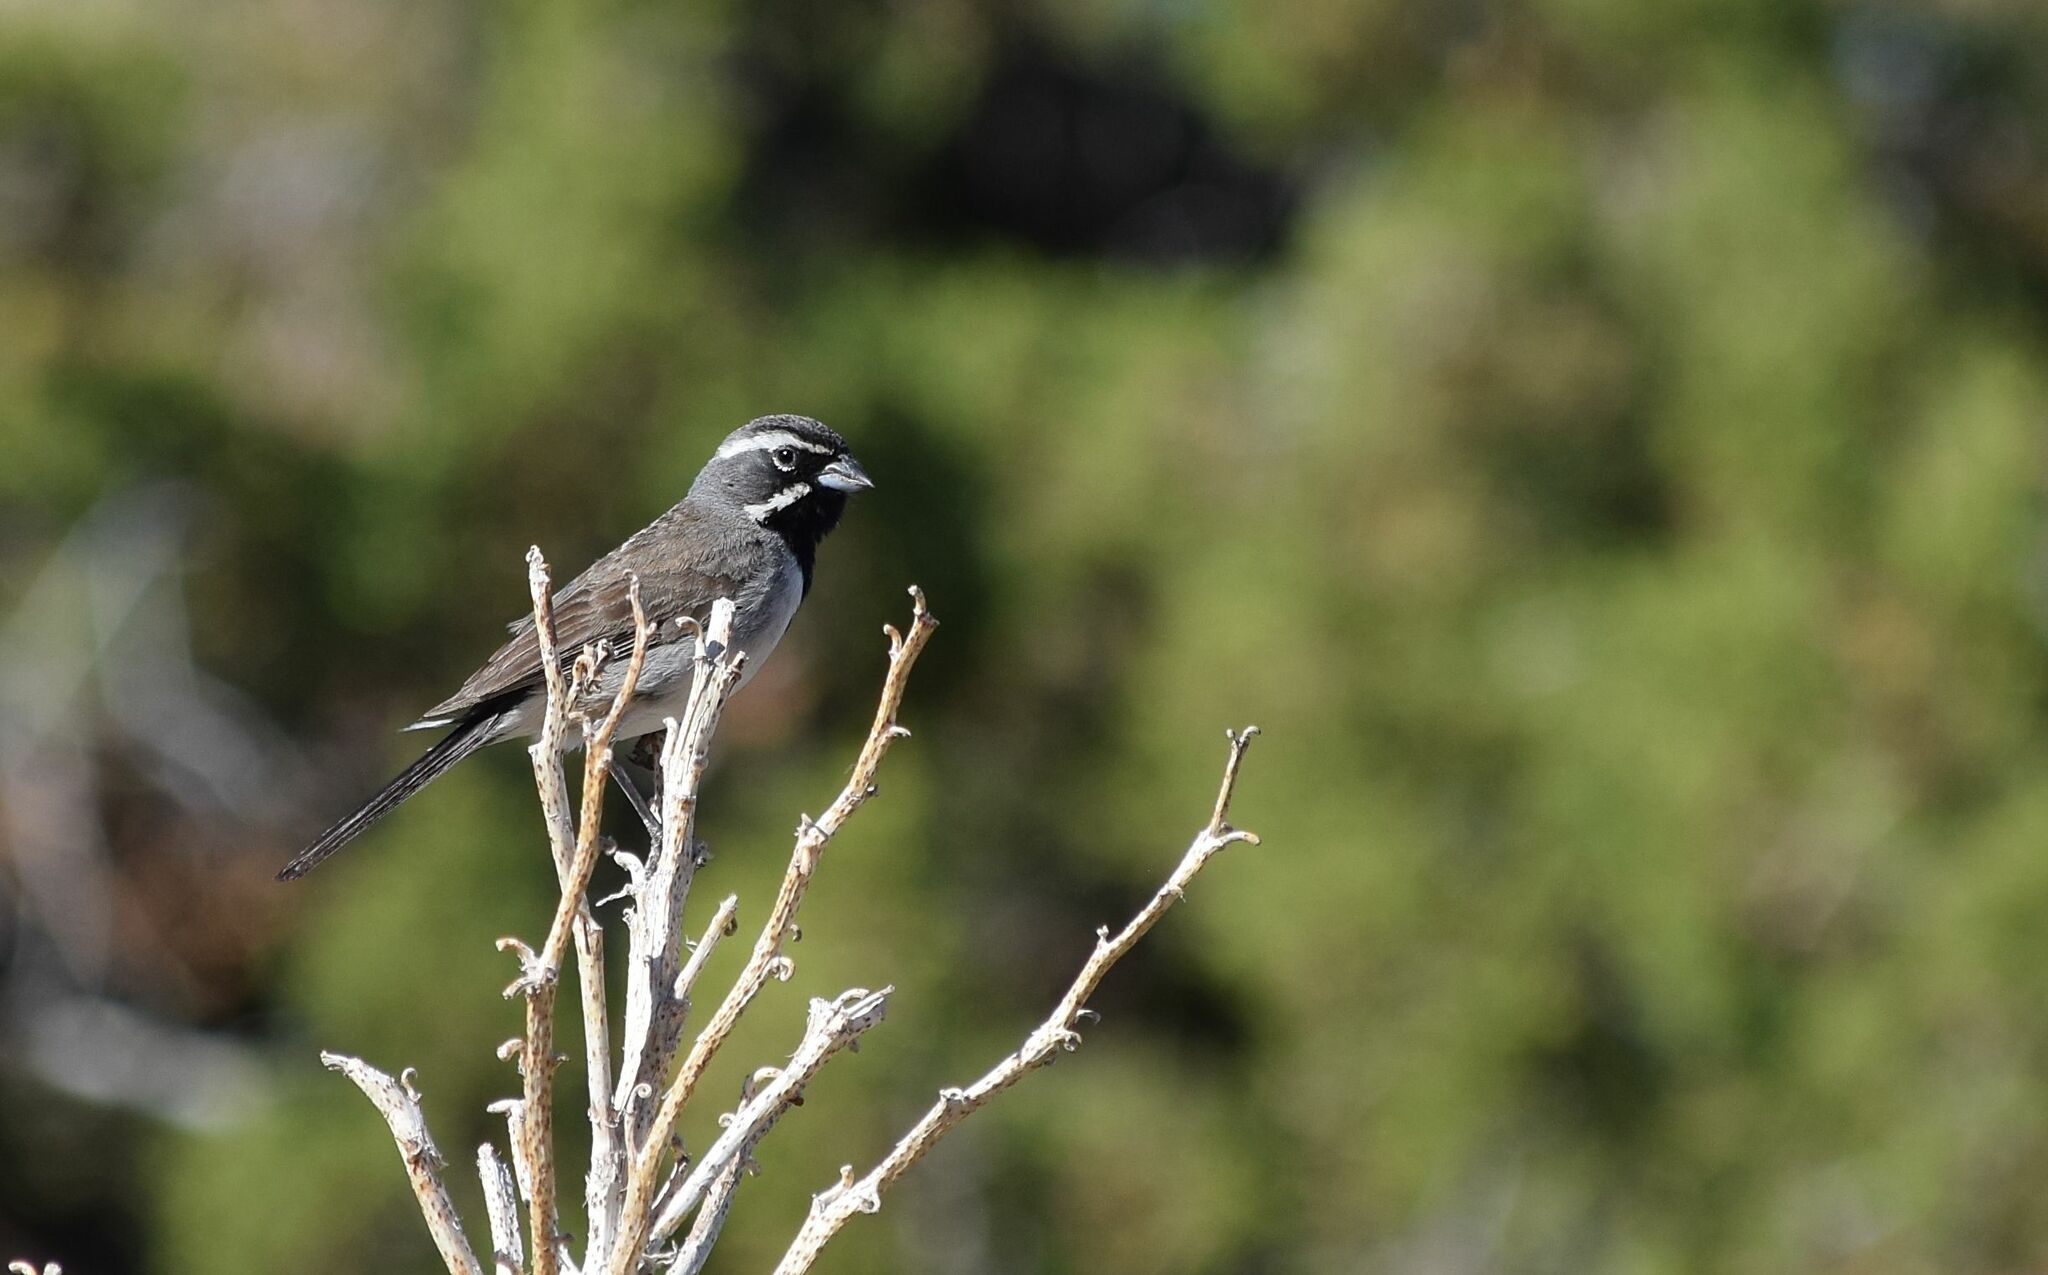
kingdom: Animalia
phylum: Chordata
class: Aves
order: Passeriformes
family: Passerellidae
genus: Amphispiza
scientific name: Amphispiza bilineata
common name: Black-throated sparrow
